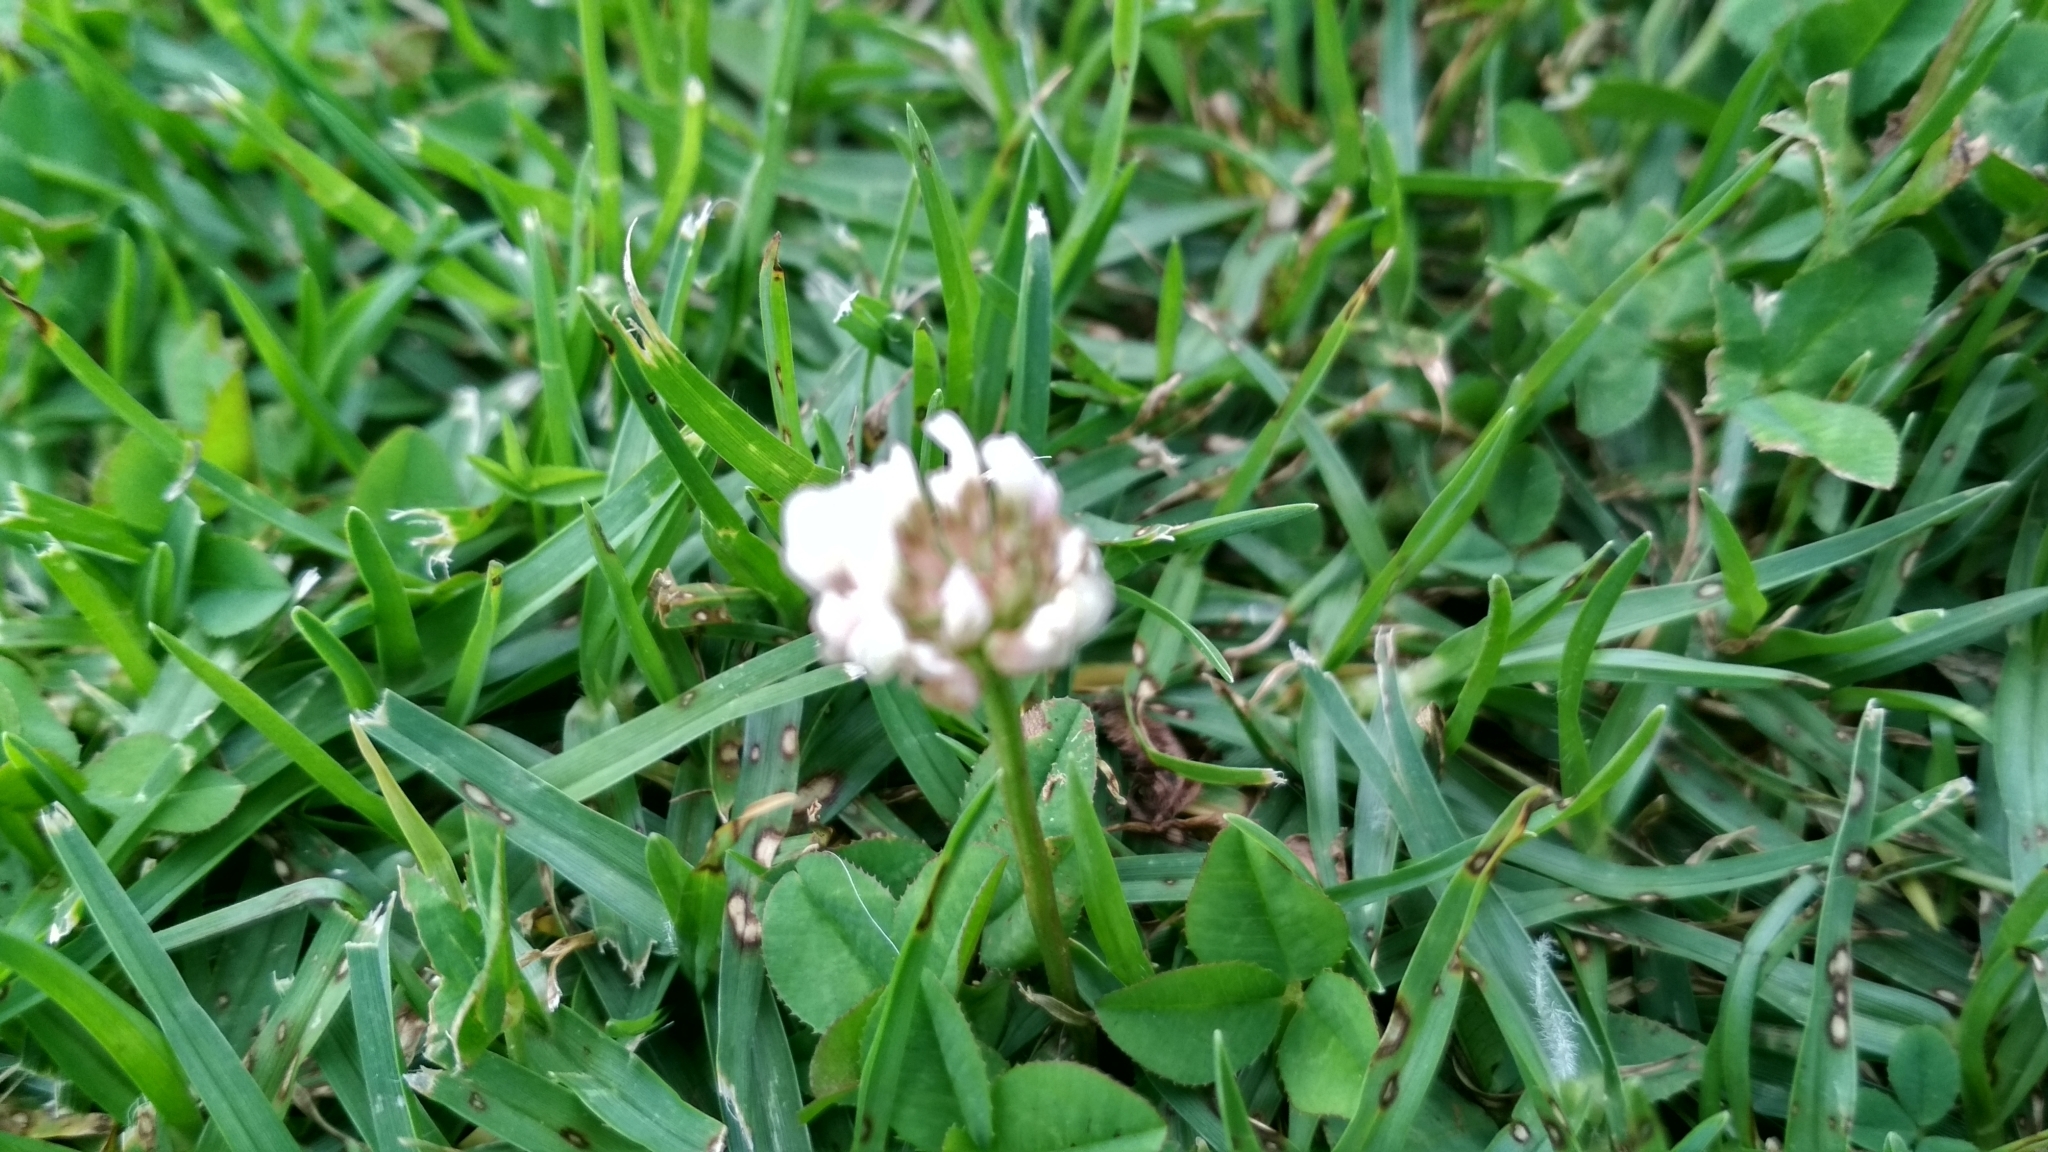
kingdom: Plantae
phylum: Tracheophyta
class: Magnoliopsida
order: Fabales
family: Fabaceae
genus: Trifolium
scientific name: Trifolium repens
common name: White clover
